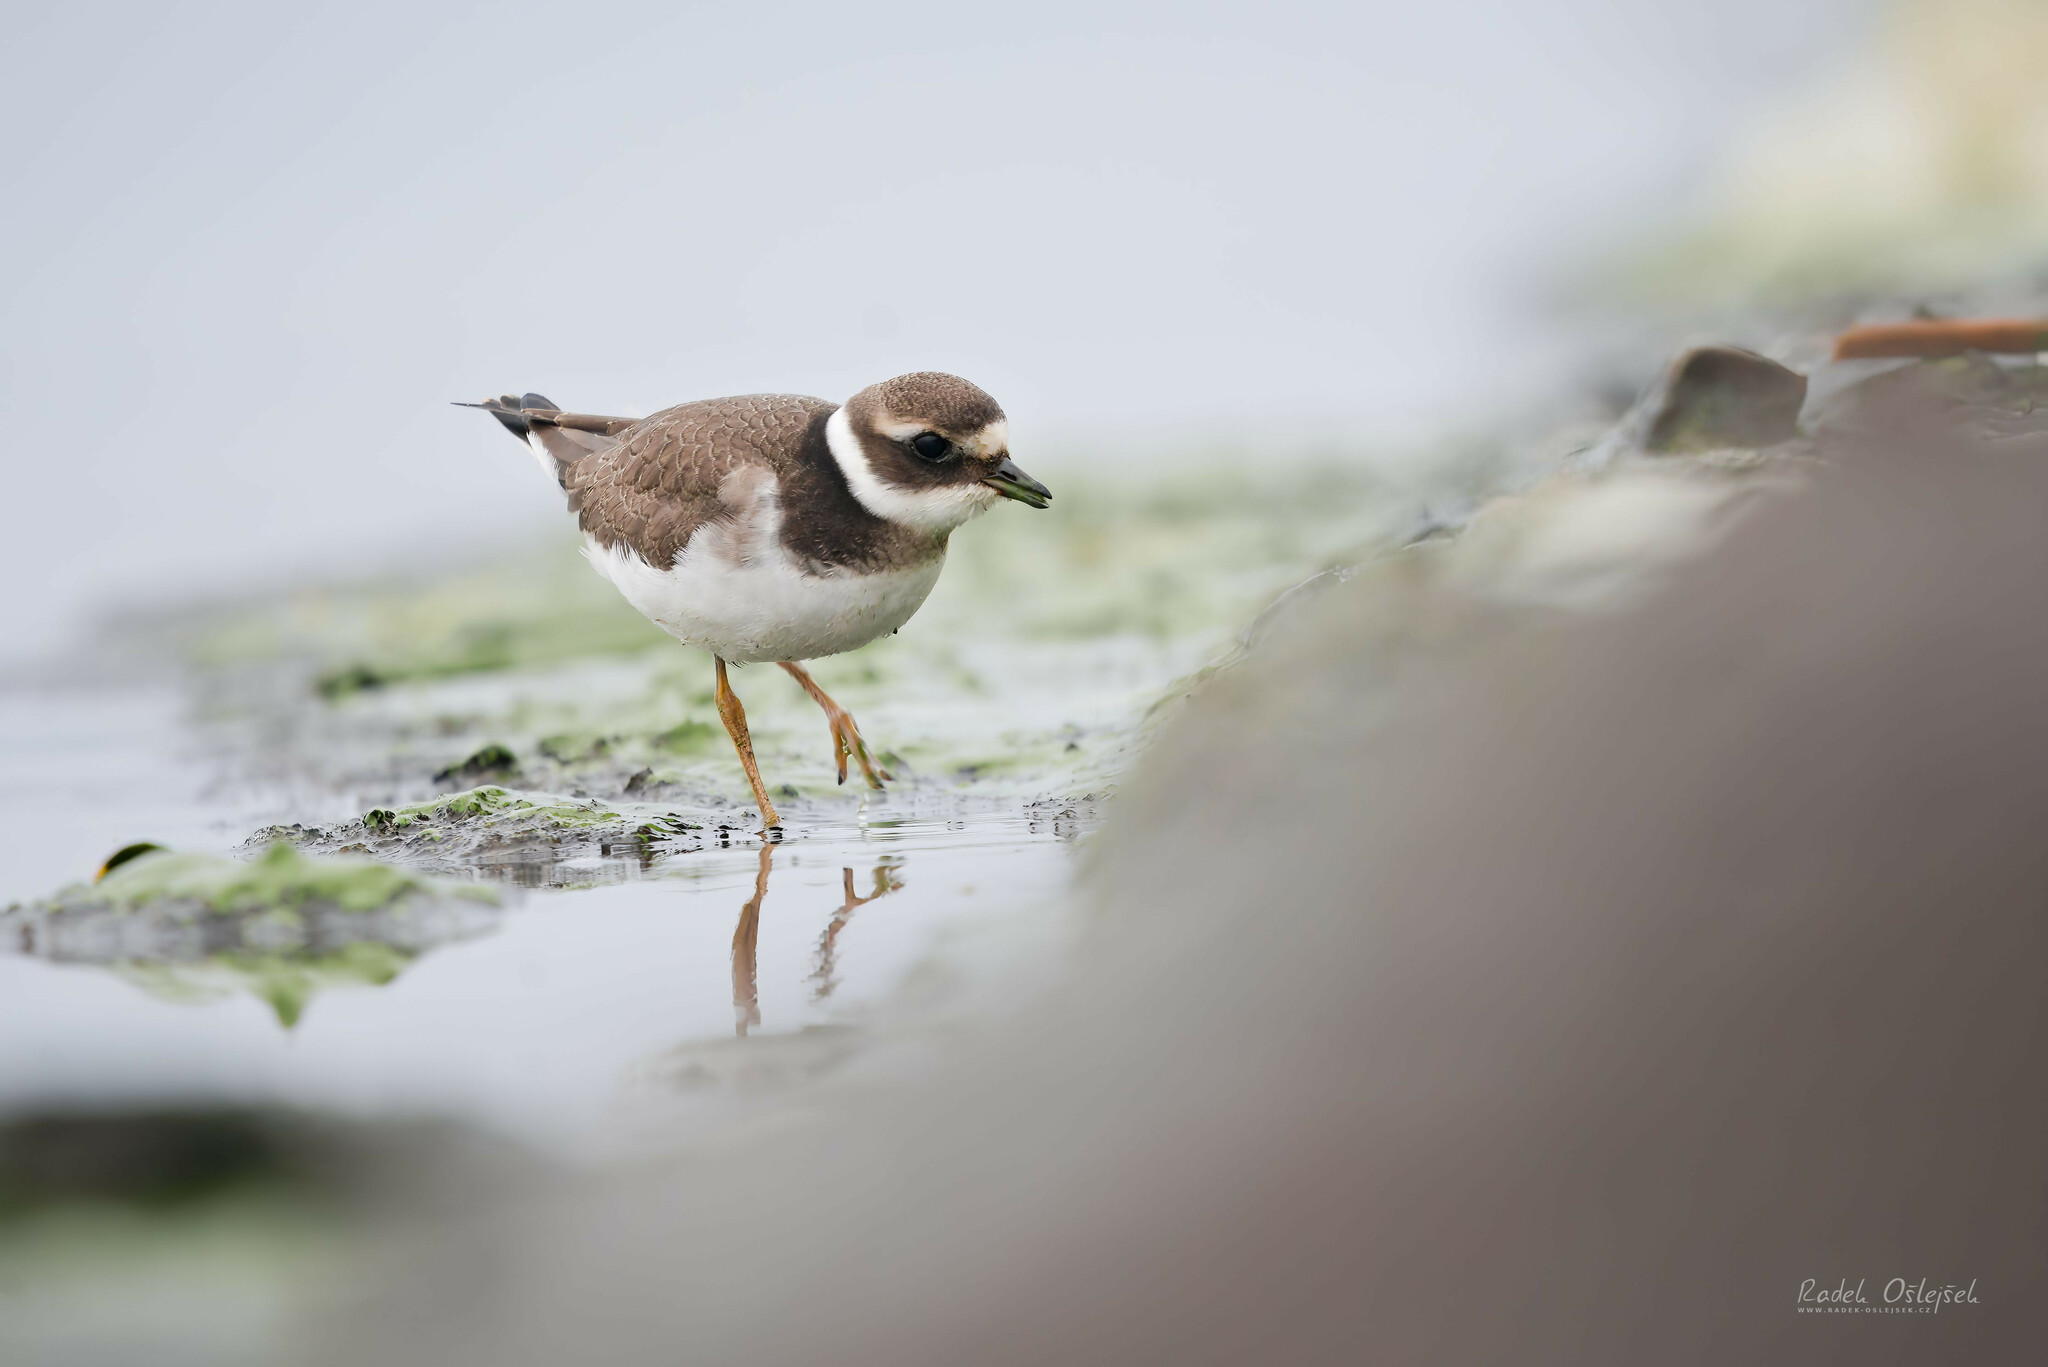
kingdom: Animalia
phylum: Chordata
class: Aves
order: Charadriiformes
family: Charadriidae
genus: Charadrius
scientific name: Charadrius hiaticula
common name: Common ringed plover
